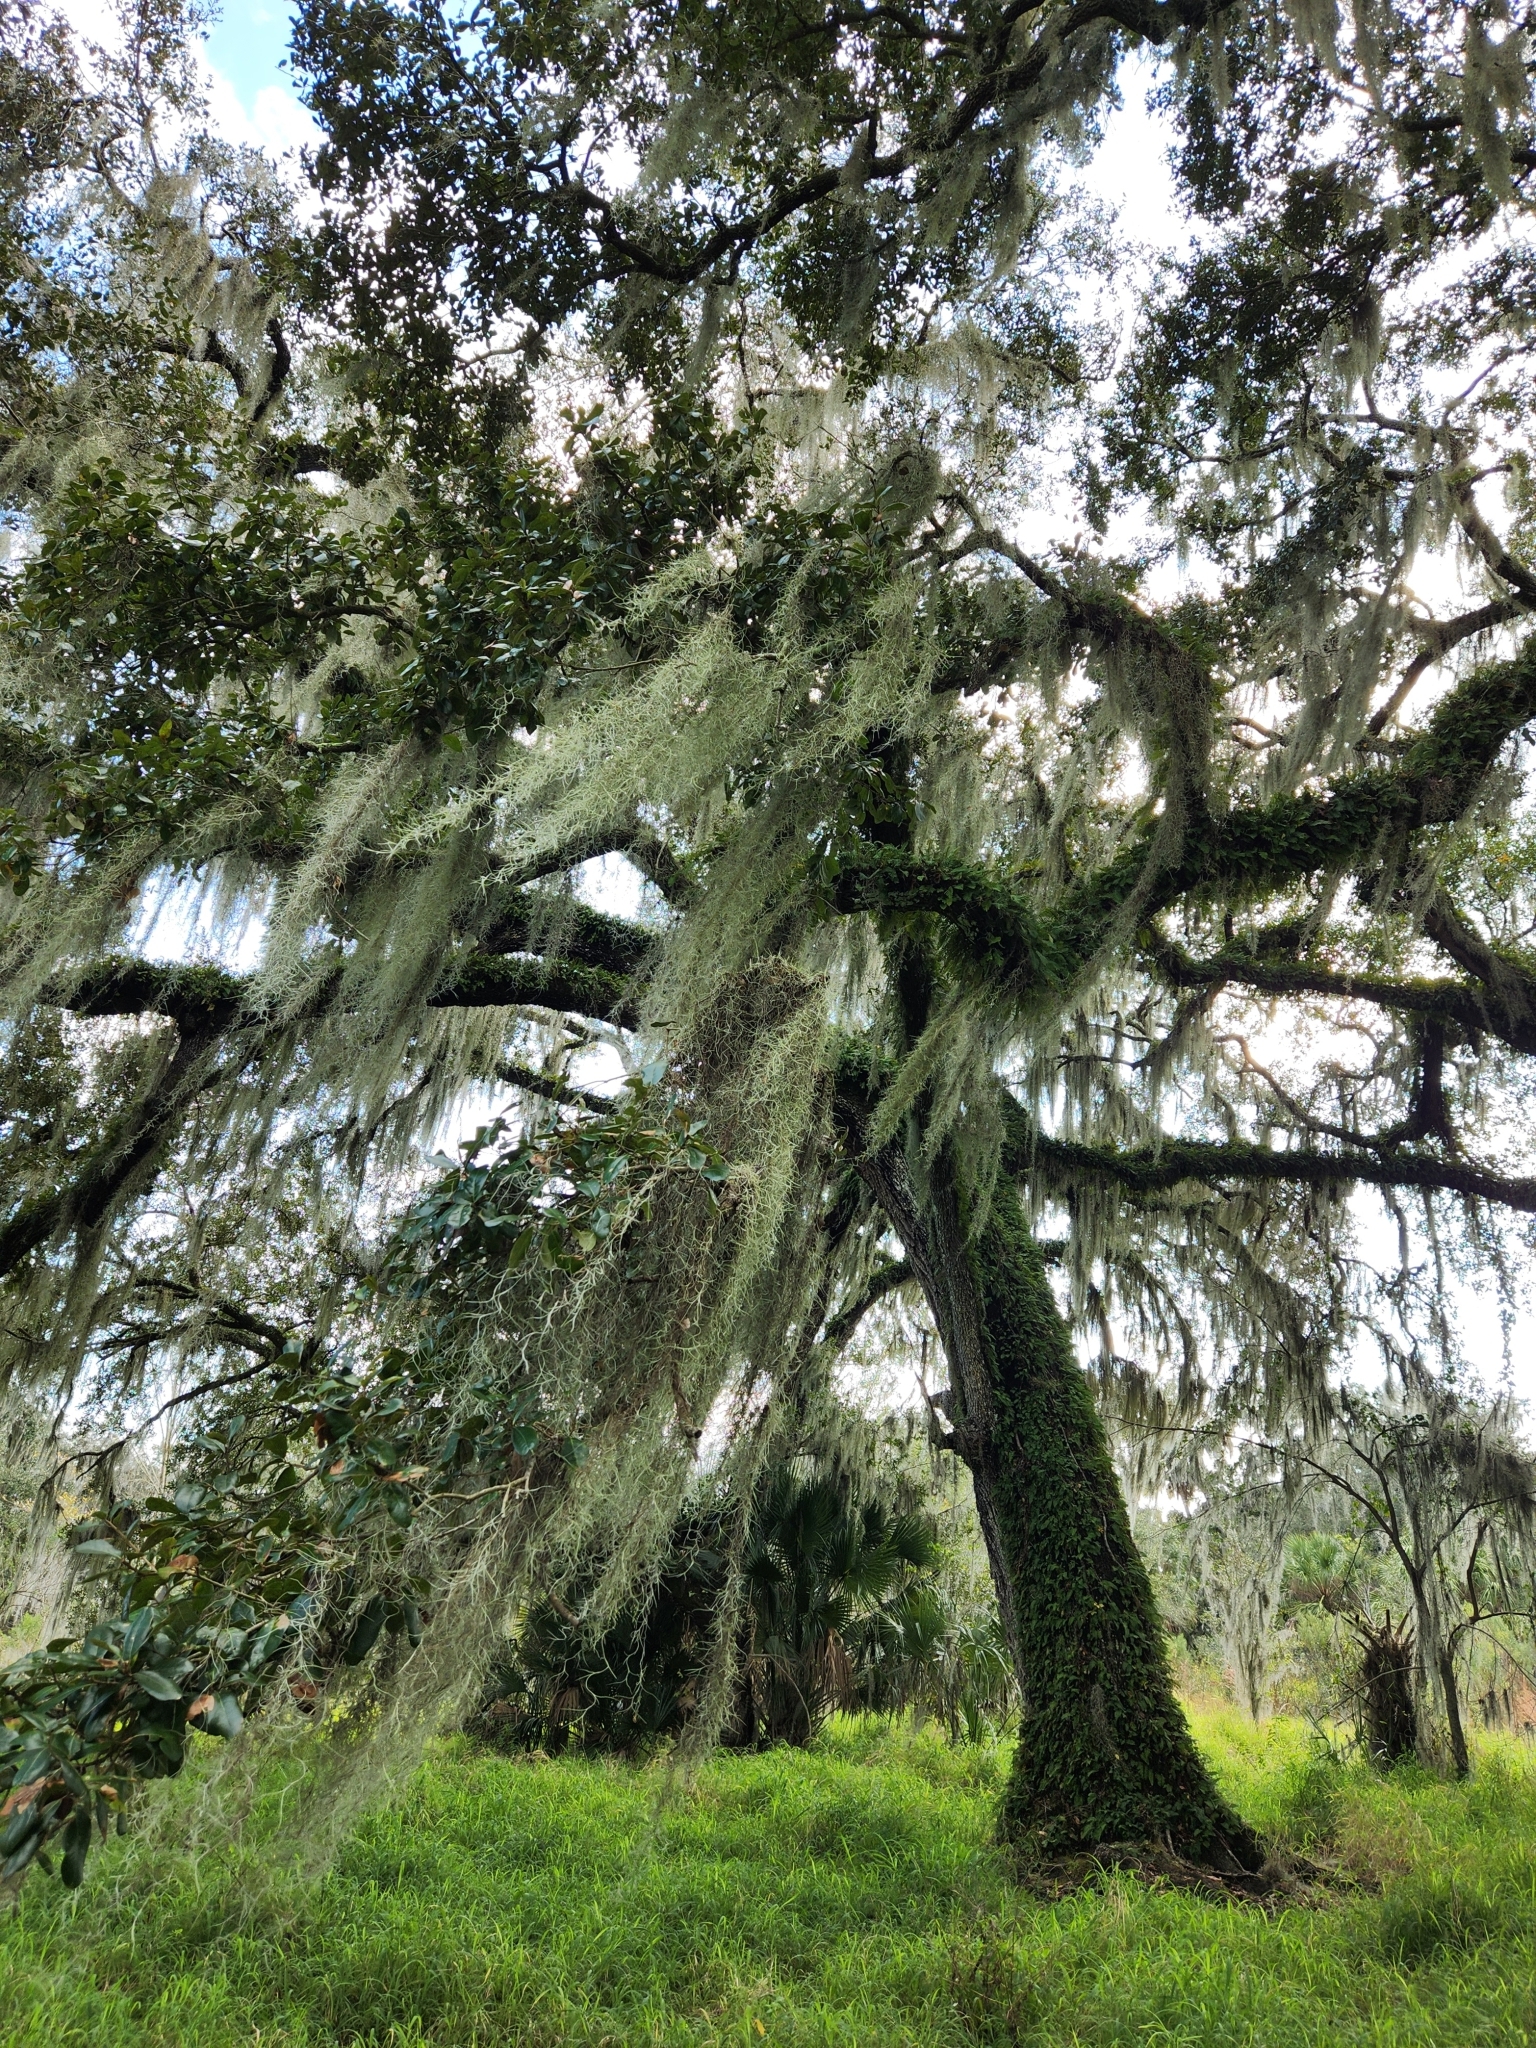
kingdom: Plantae
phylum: Tracheophyta
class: Magnoliopsida
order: Fagales
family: Fagaceae
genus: Quercus
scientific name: Quercus virginiana
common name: Southern live oak
